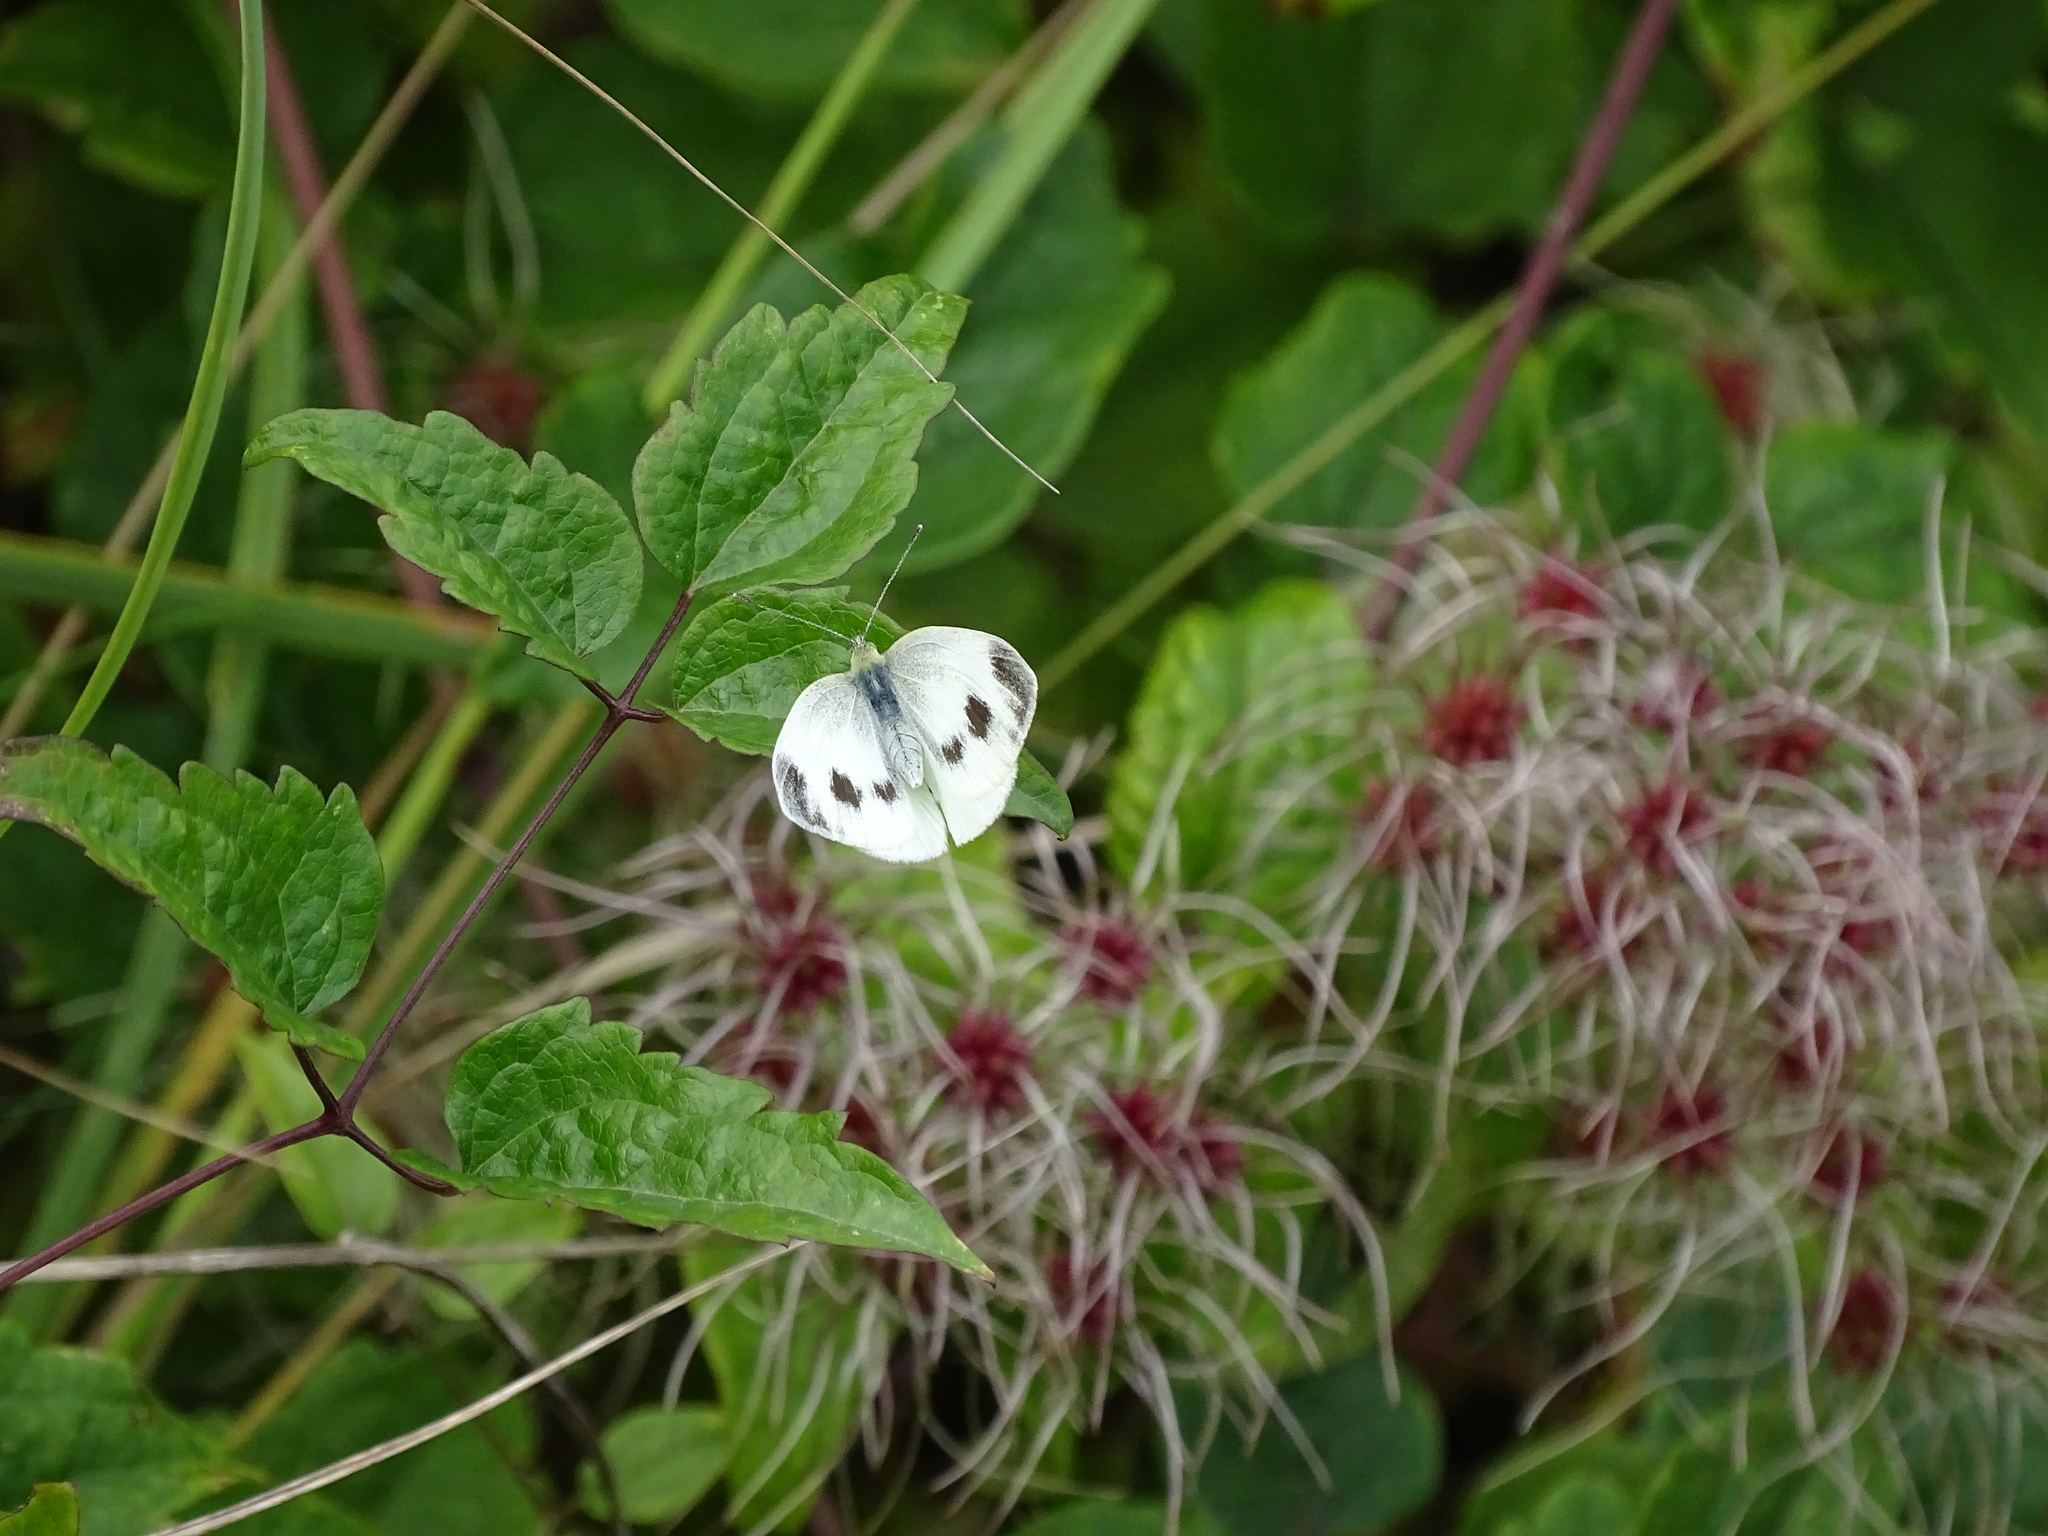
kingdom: Animalia
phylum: Arthropoda
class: Insecta
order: Lepidoptera
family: Pieridae
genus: Pieris
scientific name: Pieris mannii
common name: Southern small white
